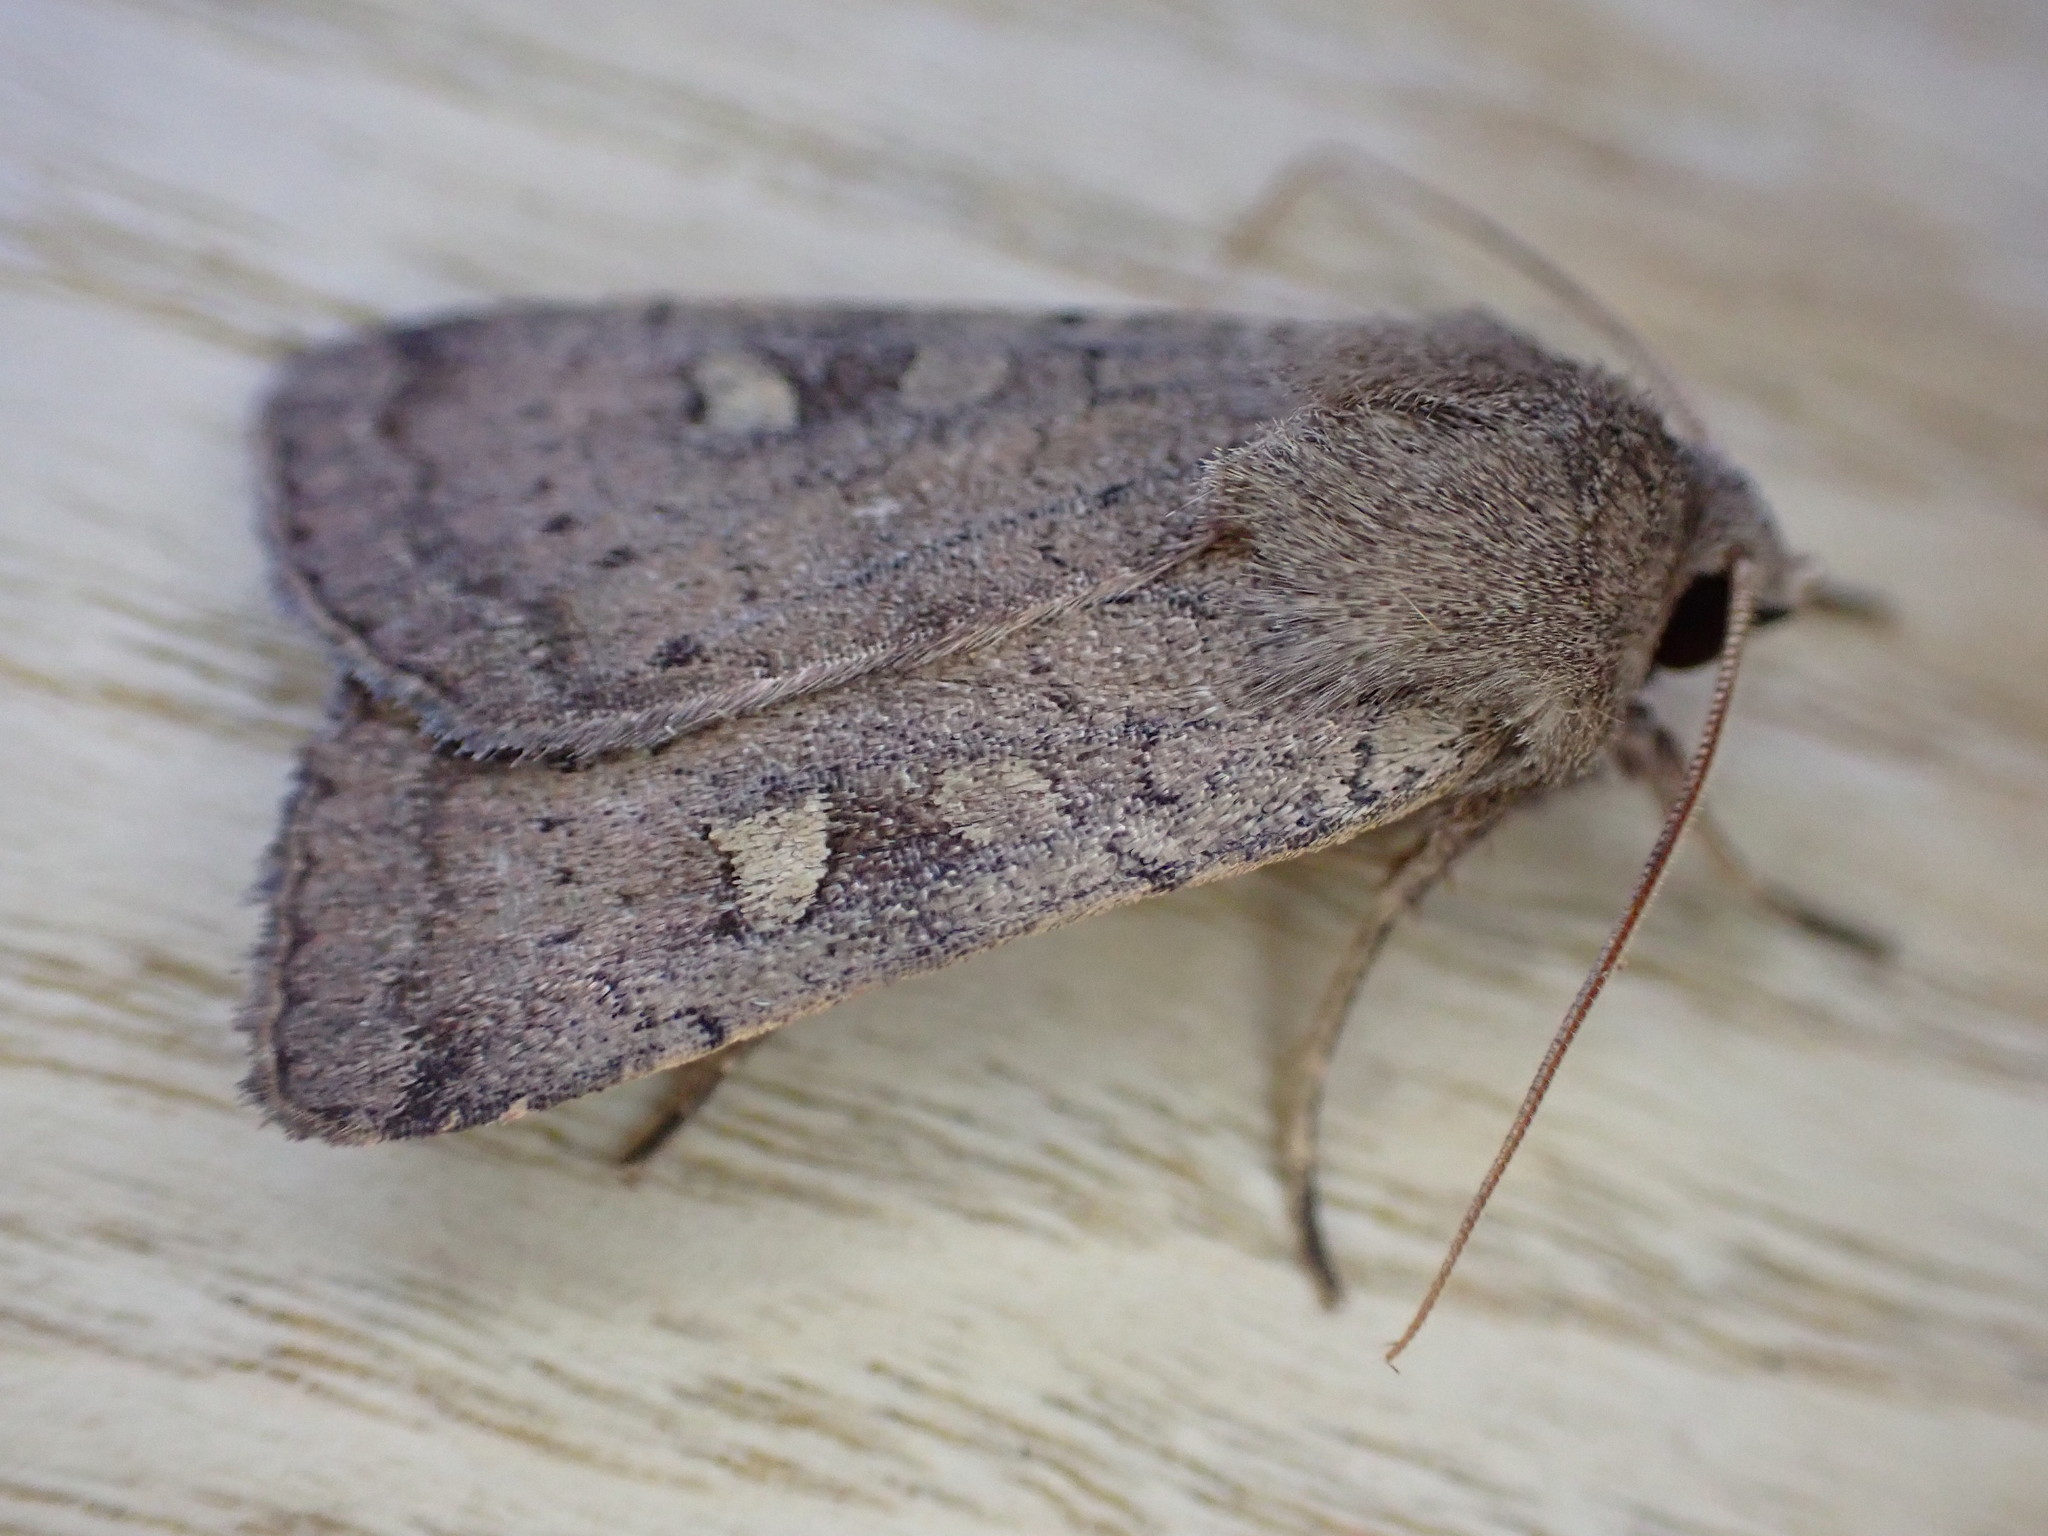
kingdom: Animalia
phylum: Arthropoda
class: Insecta
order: Lepidoptera
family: Noctuidae
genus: Xestia
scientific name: Xestia xanthographa
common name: Square-spot rustic
